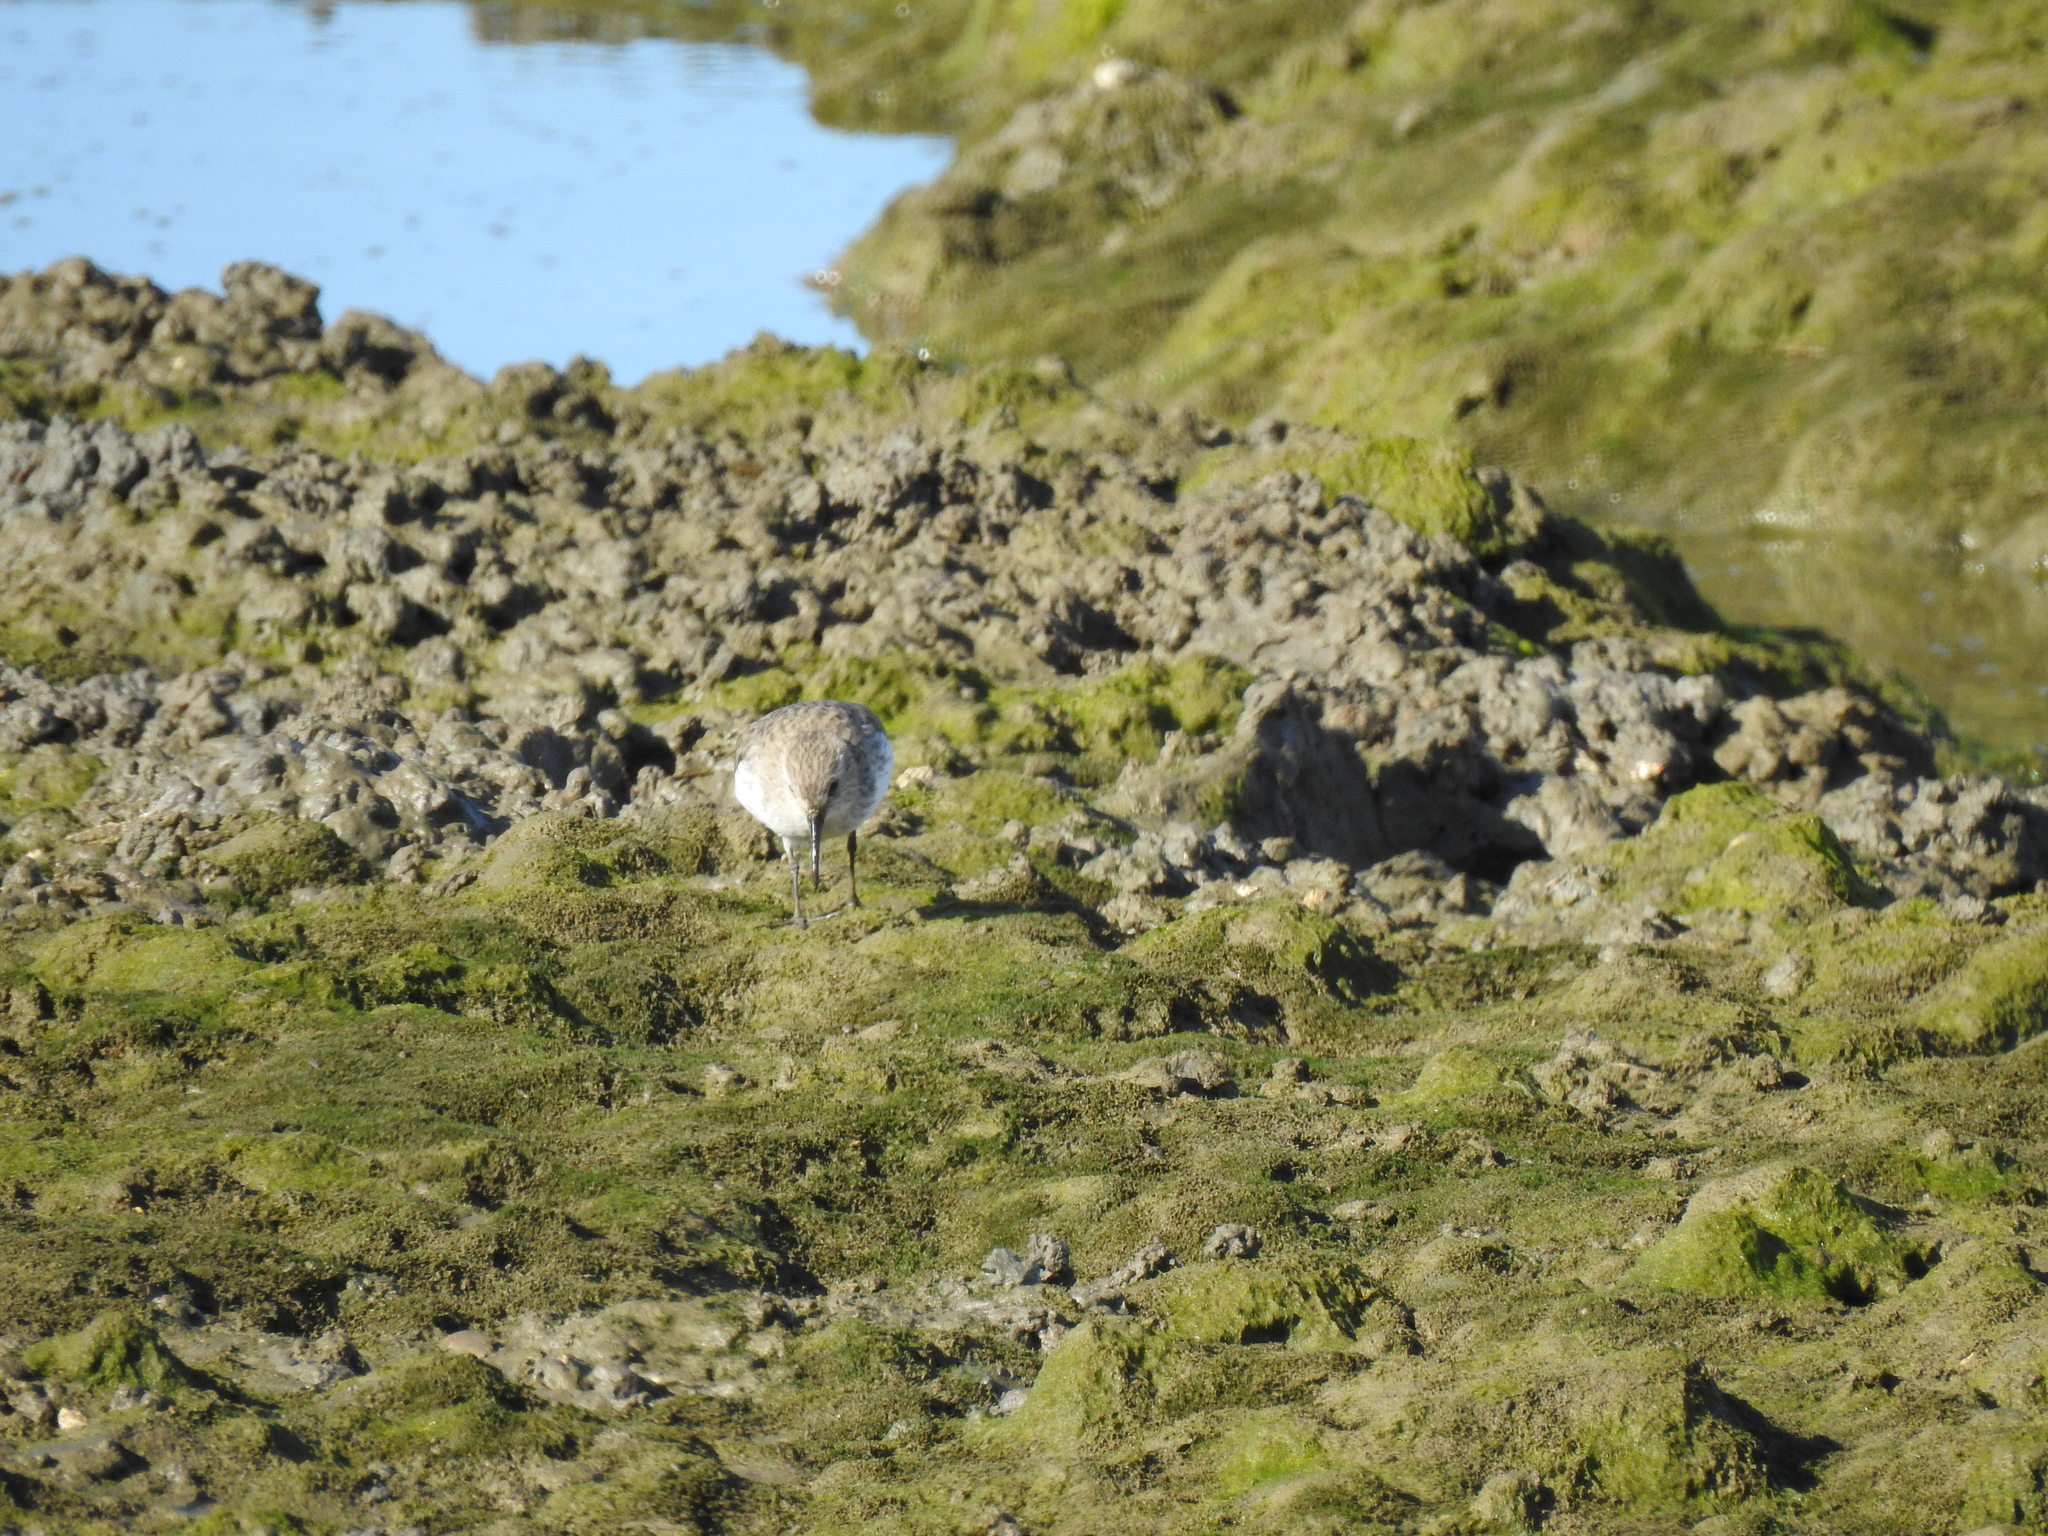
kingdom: Animalia
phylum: Chordata
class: Aves
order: Charadriiformes
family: Scolopacidae
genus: Calidris
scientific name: Calidris alpina
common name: Dunlin
